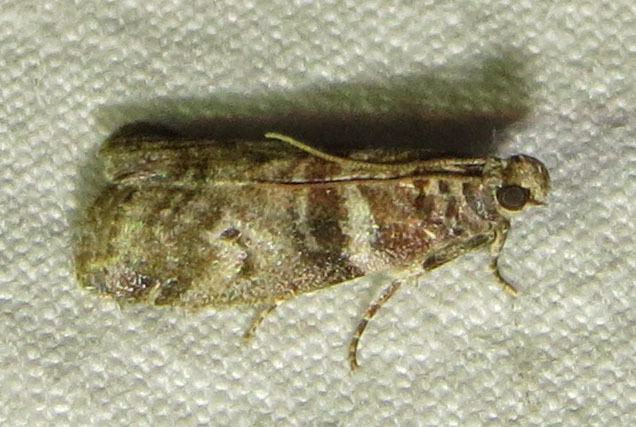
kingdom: Animalia
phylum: Arthropoda
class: Insecta
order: Lepidoptera
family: Pyralidae
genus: Sciota
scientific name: Sciota uvinella
